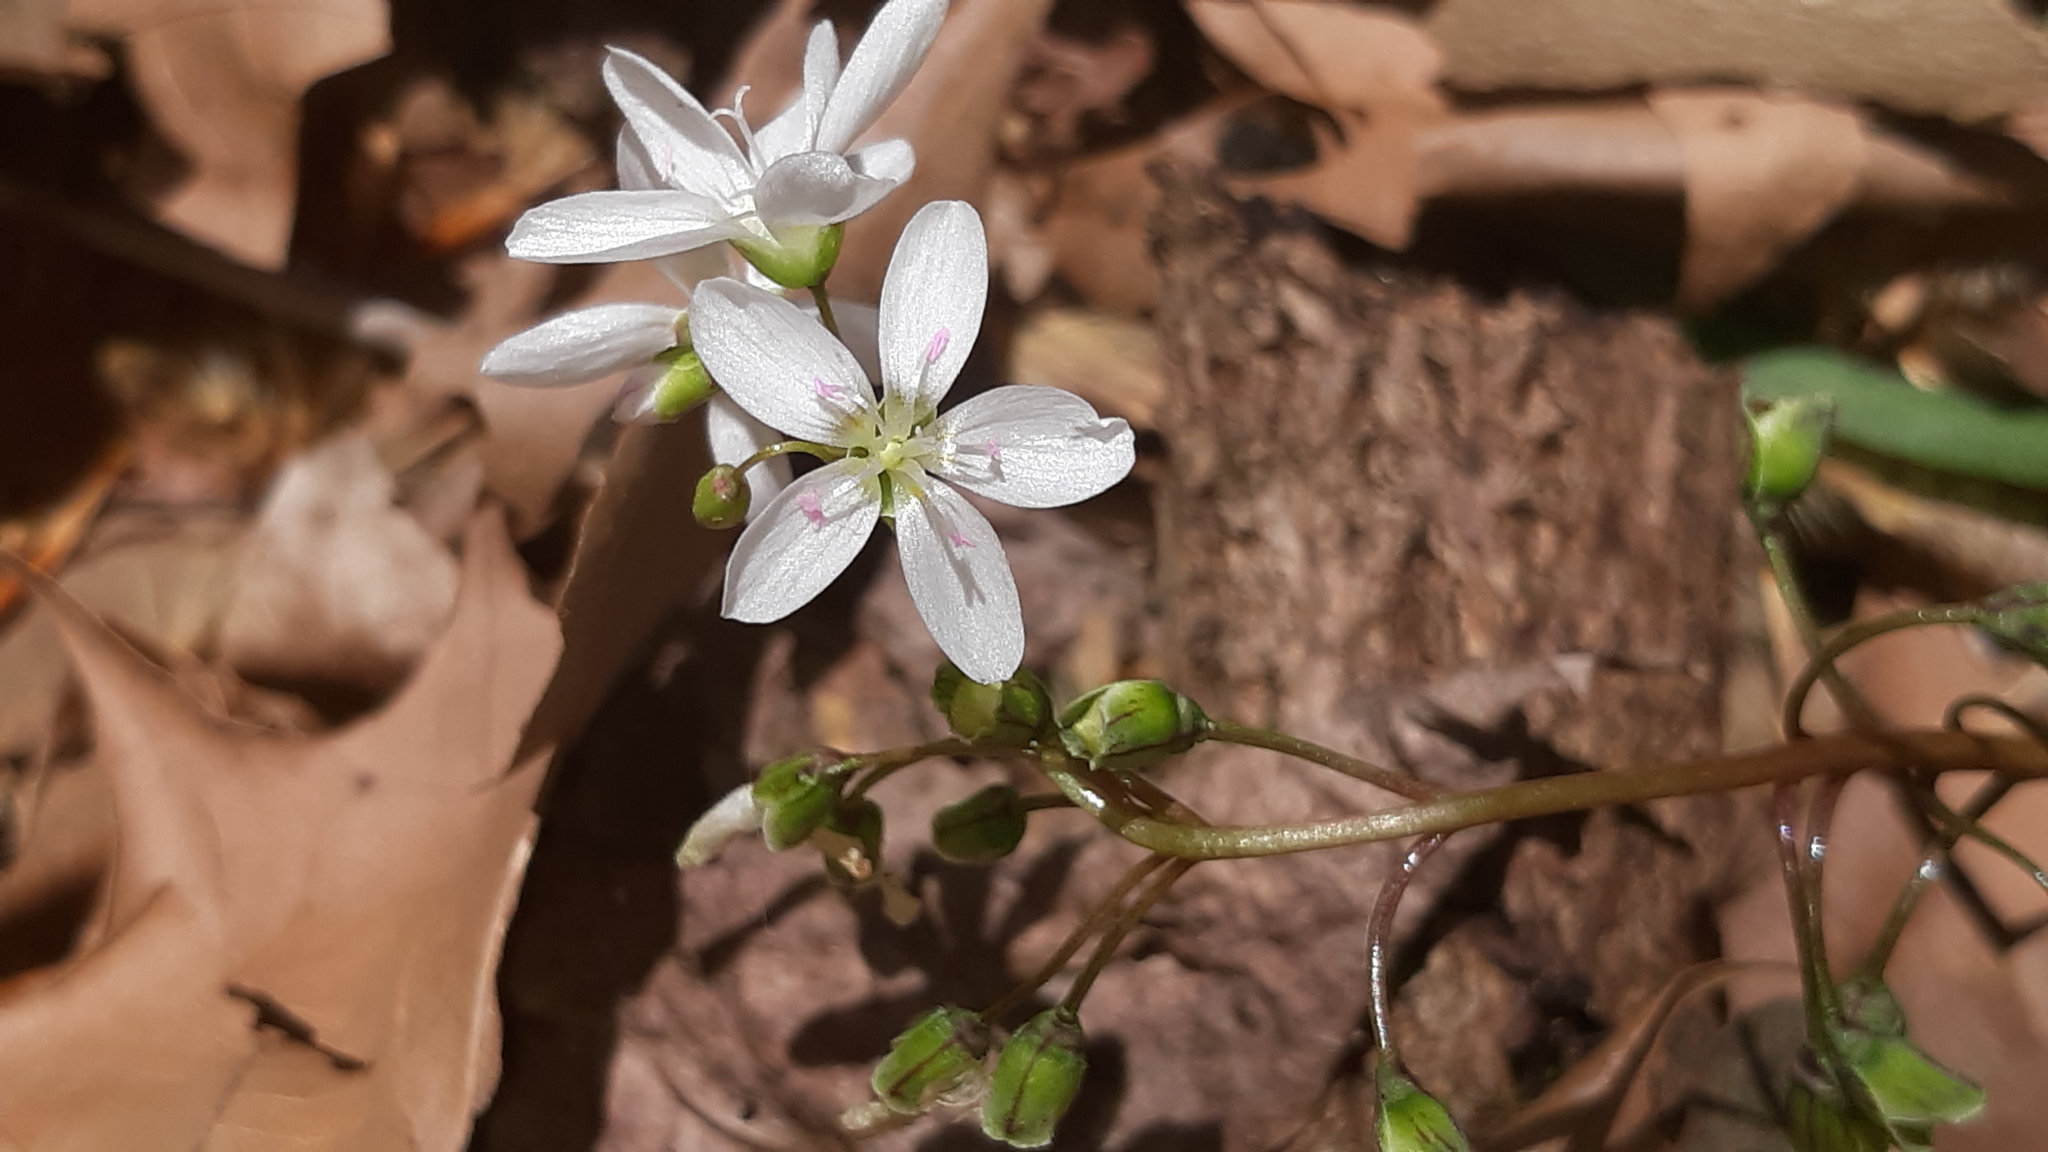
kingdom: Plantae
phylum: Tracheophyta
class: Magnoliopsida
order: Caryophyllales
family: Montiaceae
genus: Claytonia
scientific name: Claytonia virginica
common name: Virginia springbeauty
